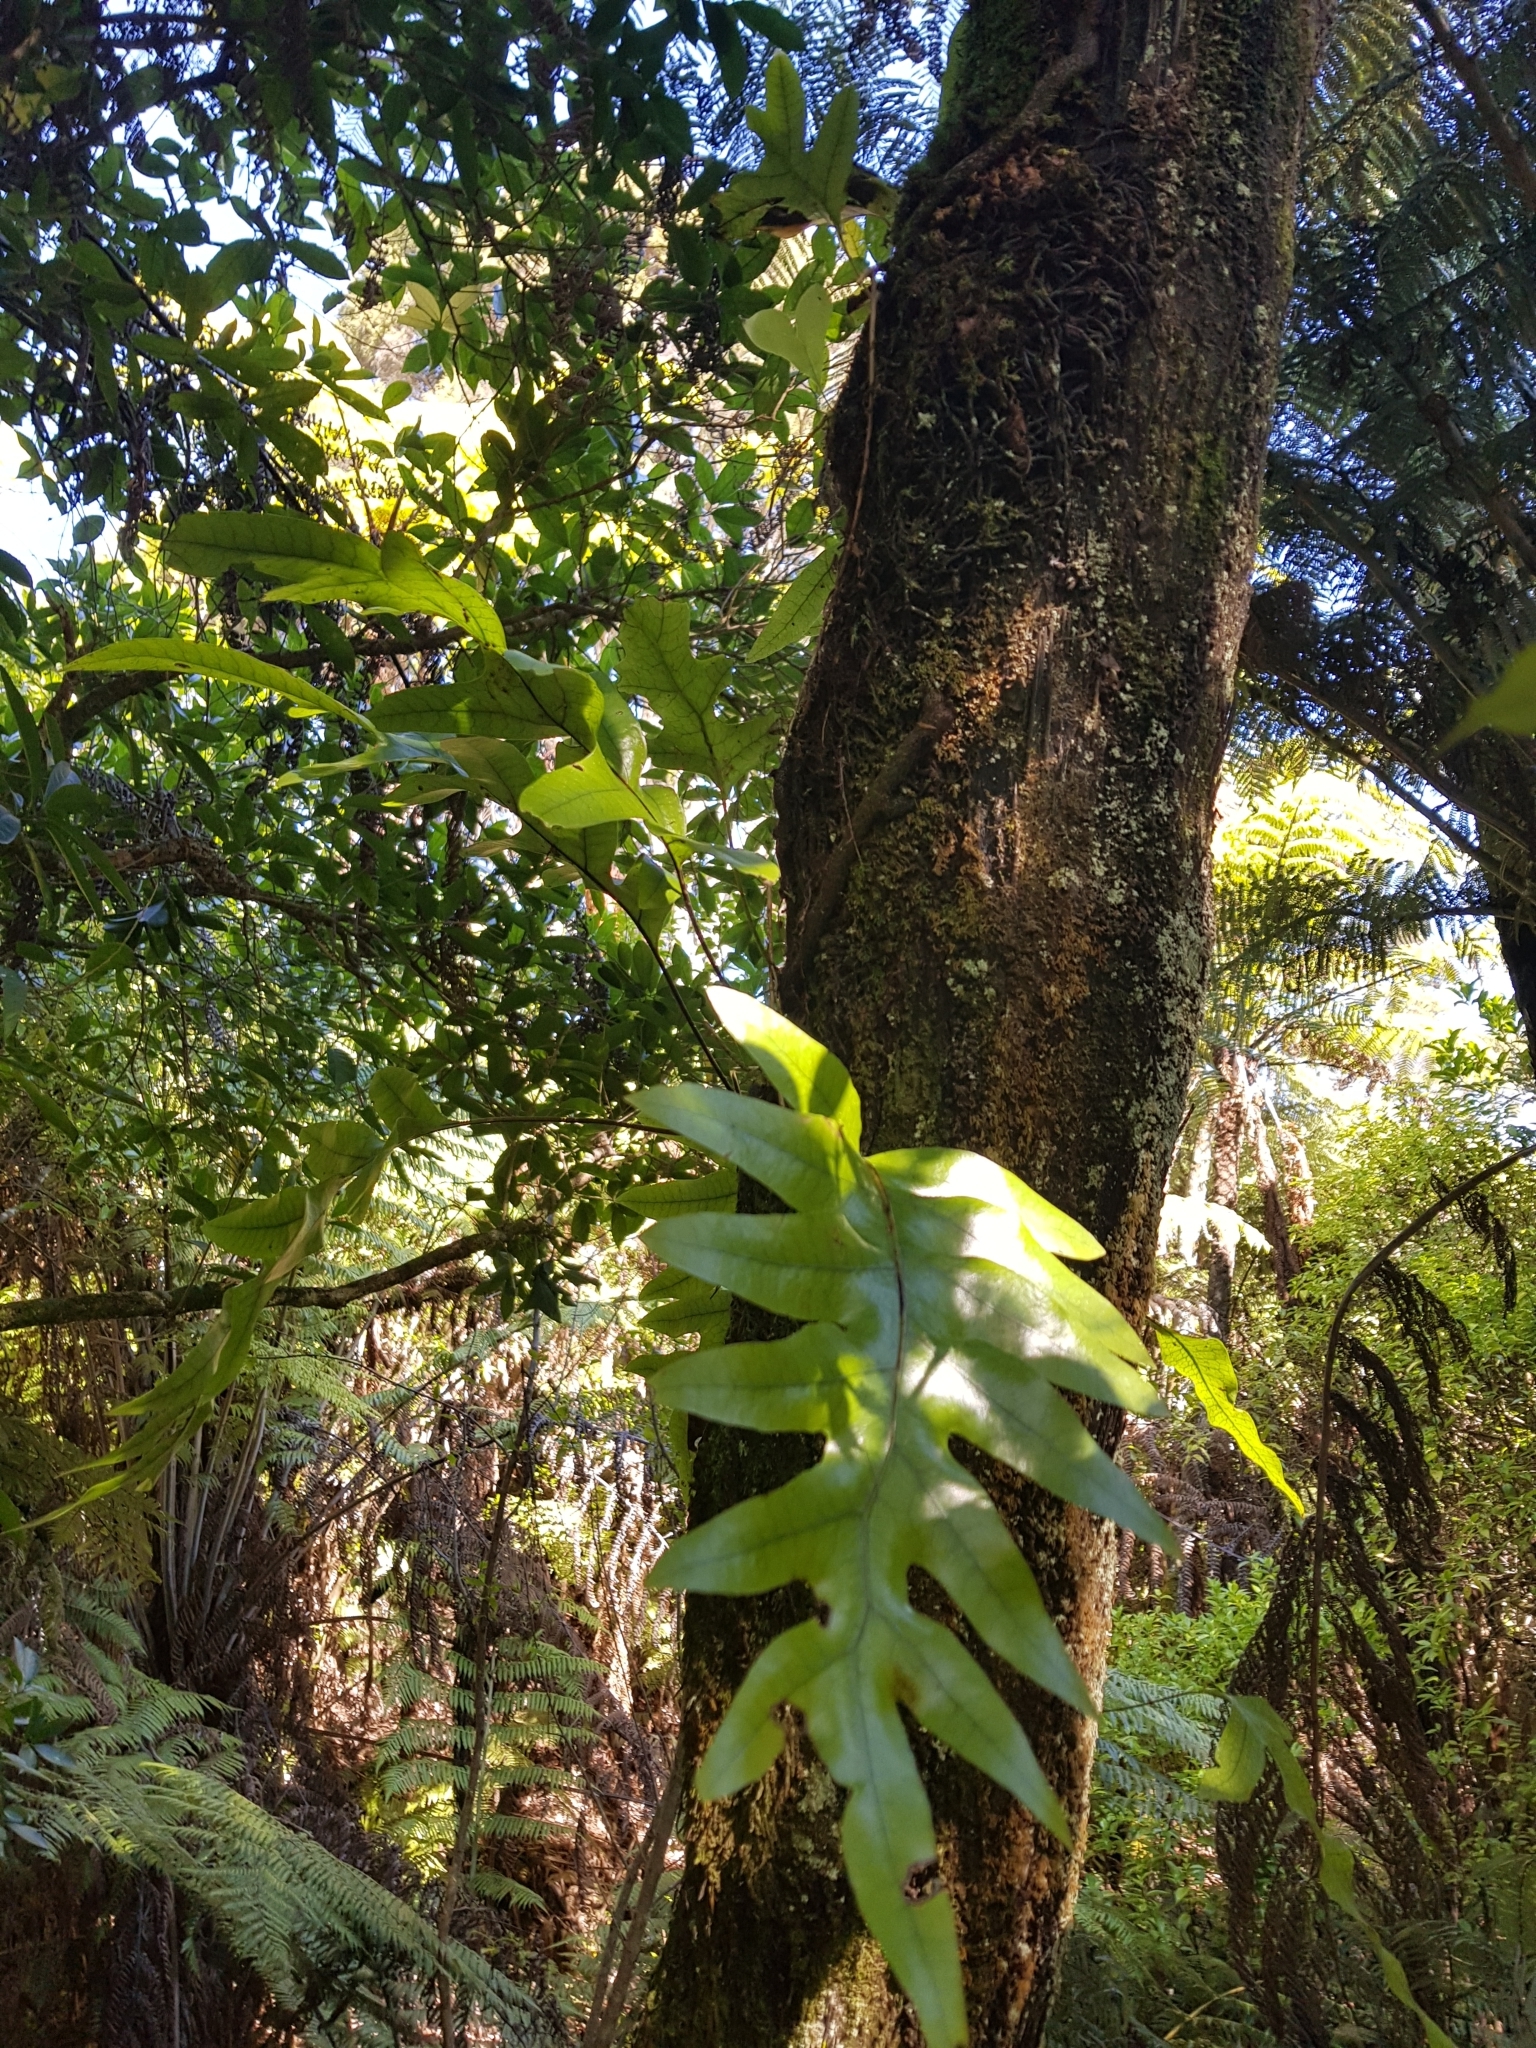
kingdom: Plantae
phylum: Tracheophyta
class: Polypodiopsida
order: Polypodiales
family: Polypodiaceae
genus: Lecanopteris
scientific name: Lecanopteris pustulata
